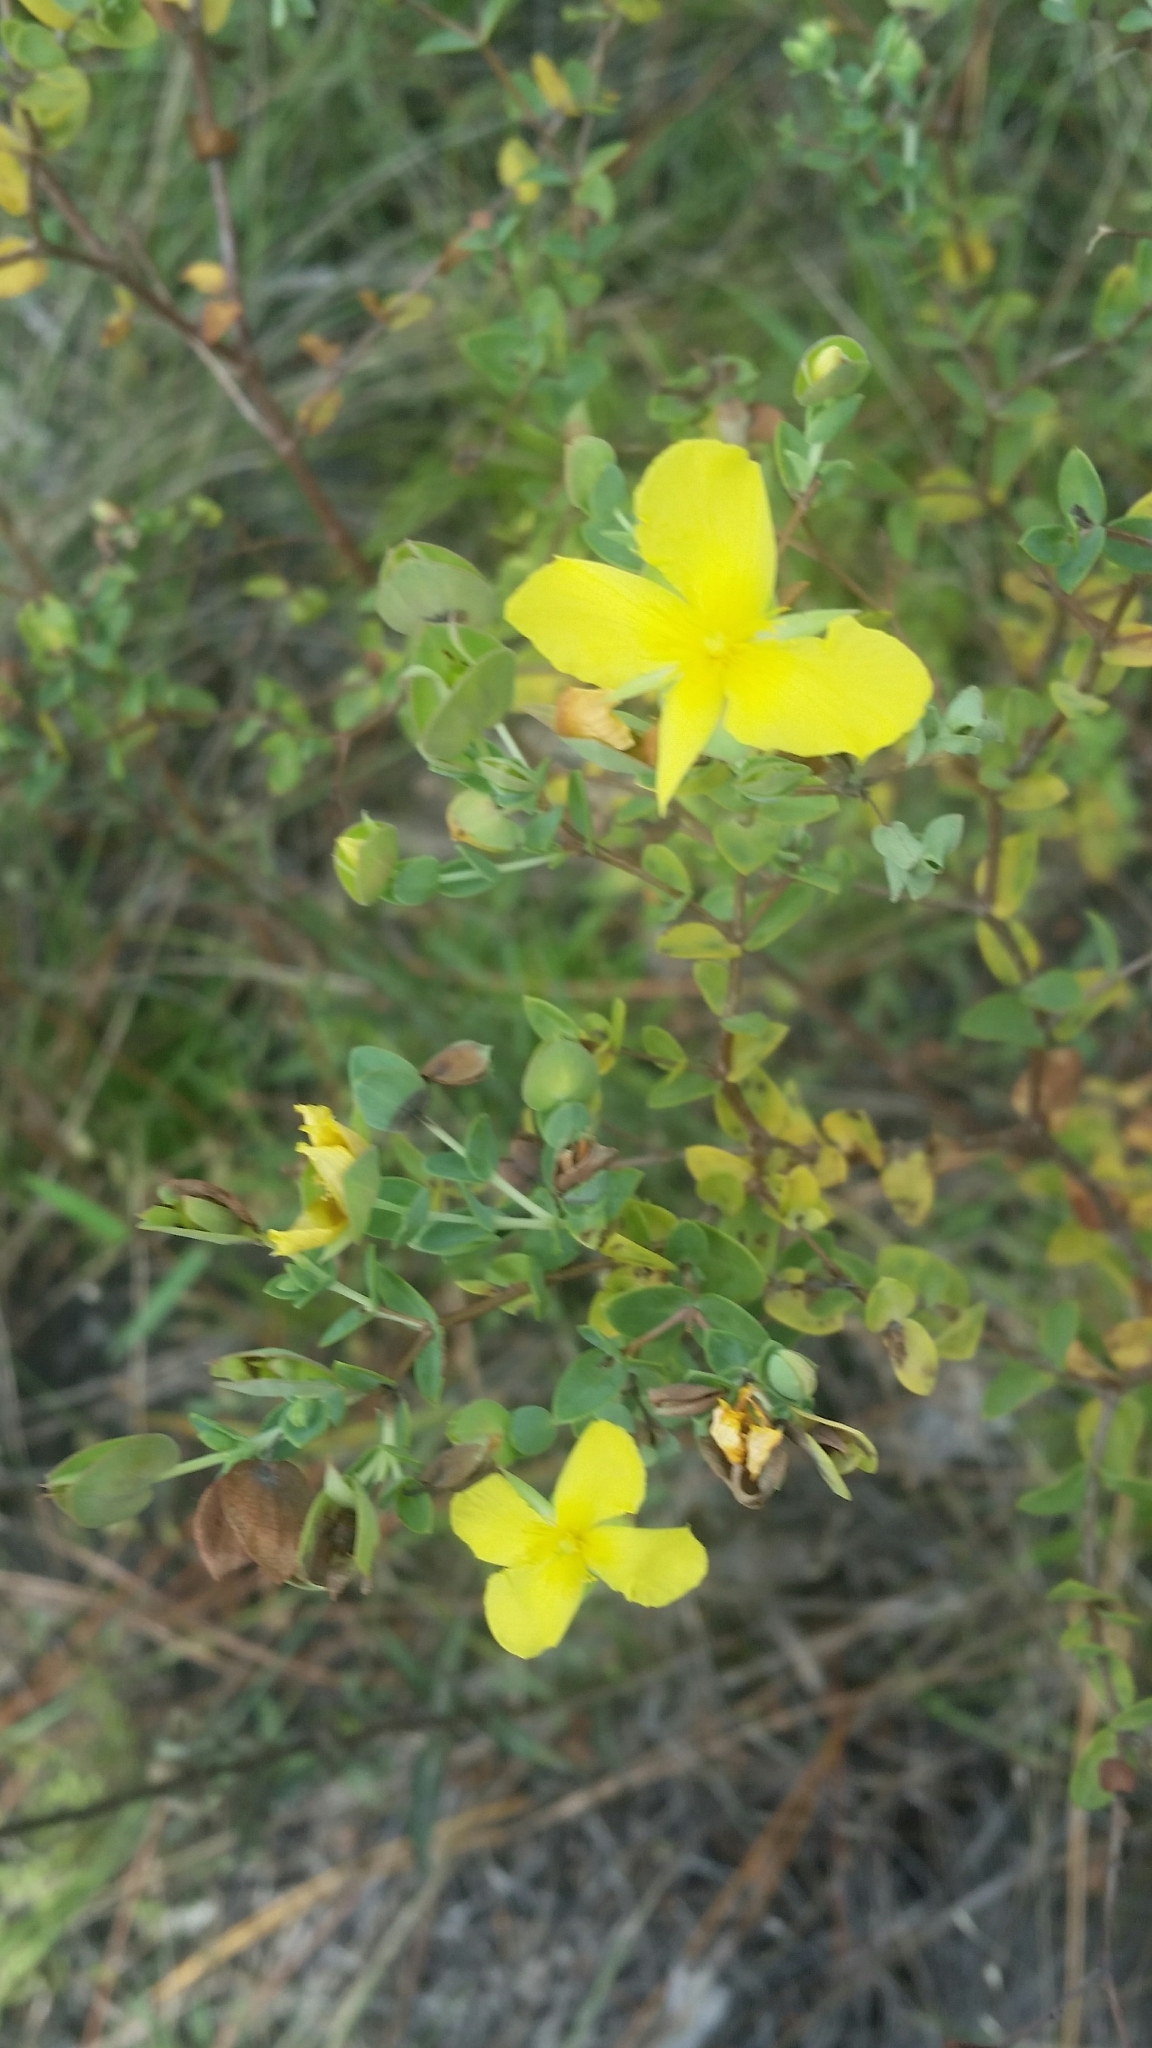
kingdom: Plantae
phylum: Tracheophyta
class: Magnoliopsida
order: Malpighiales
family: Hypericaceae
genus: Hypericum
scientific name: Hypericum tetrapetalum
